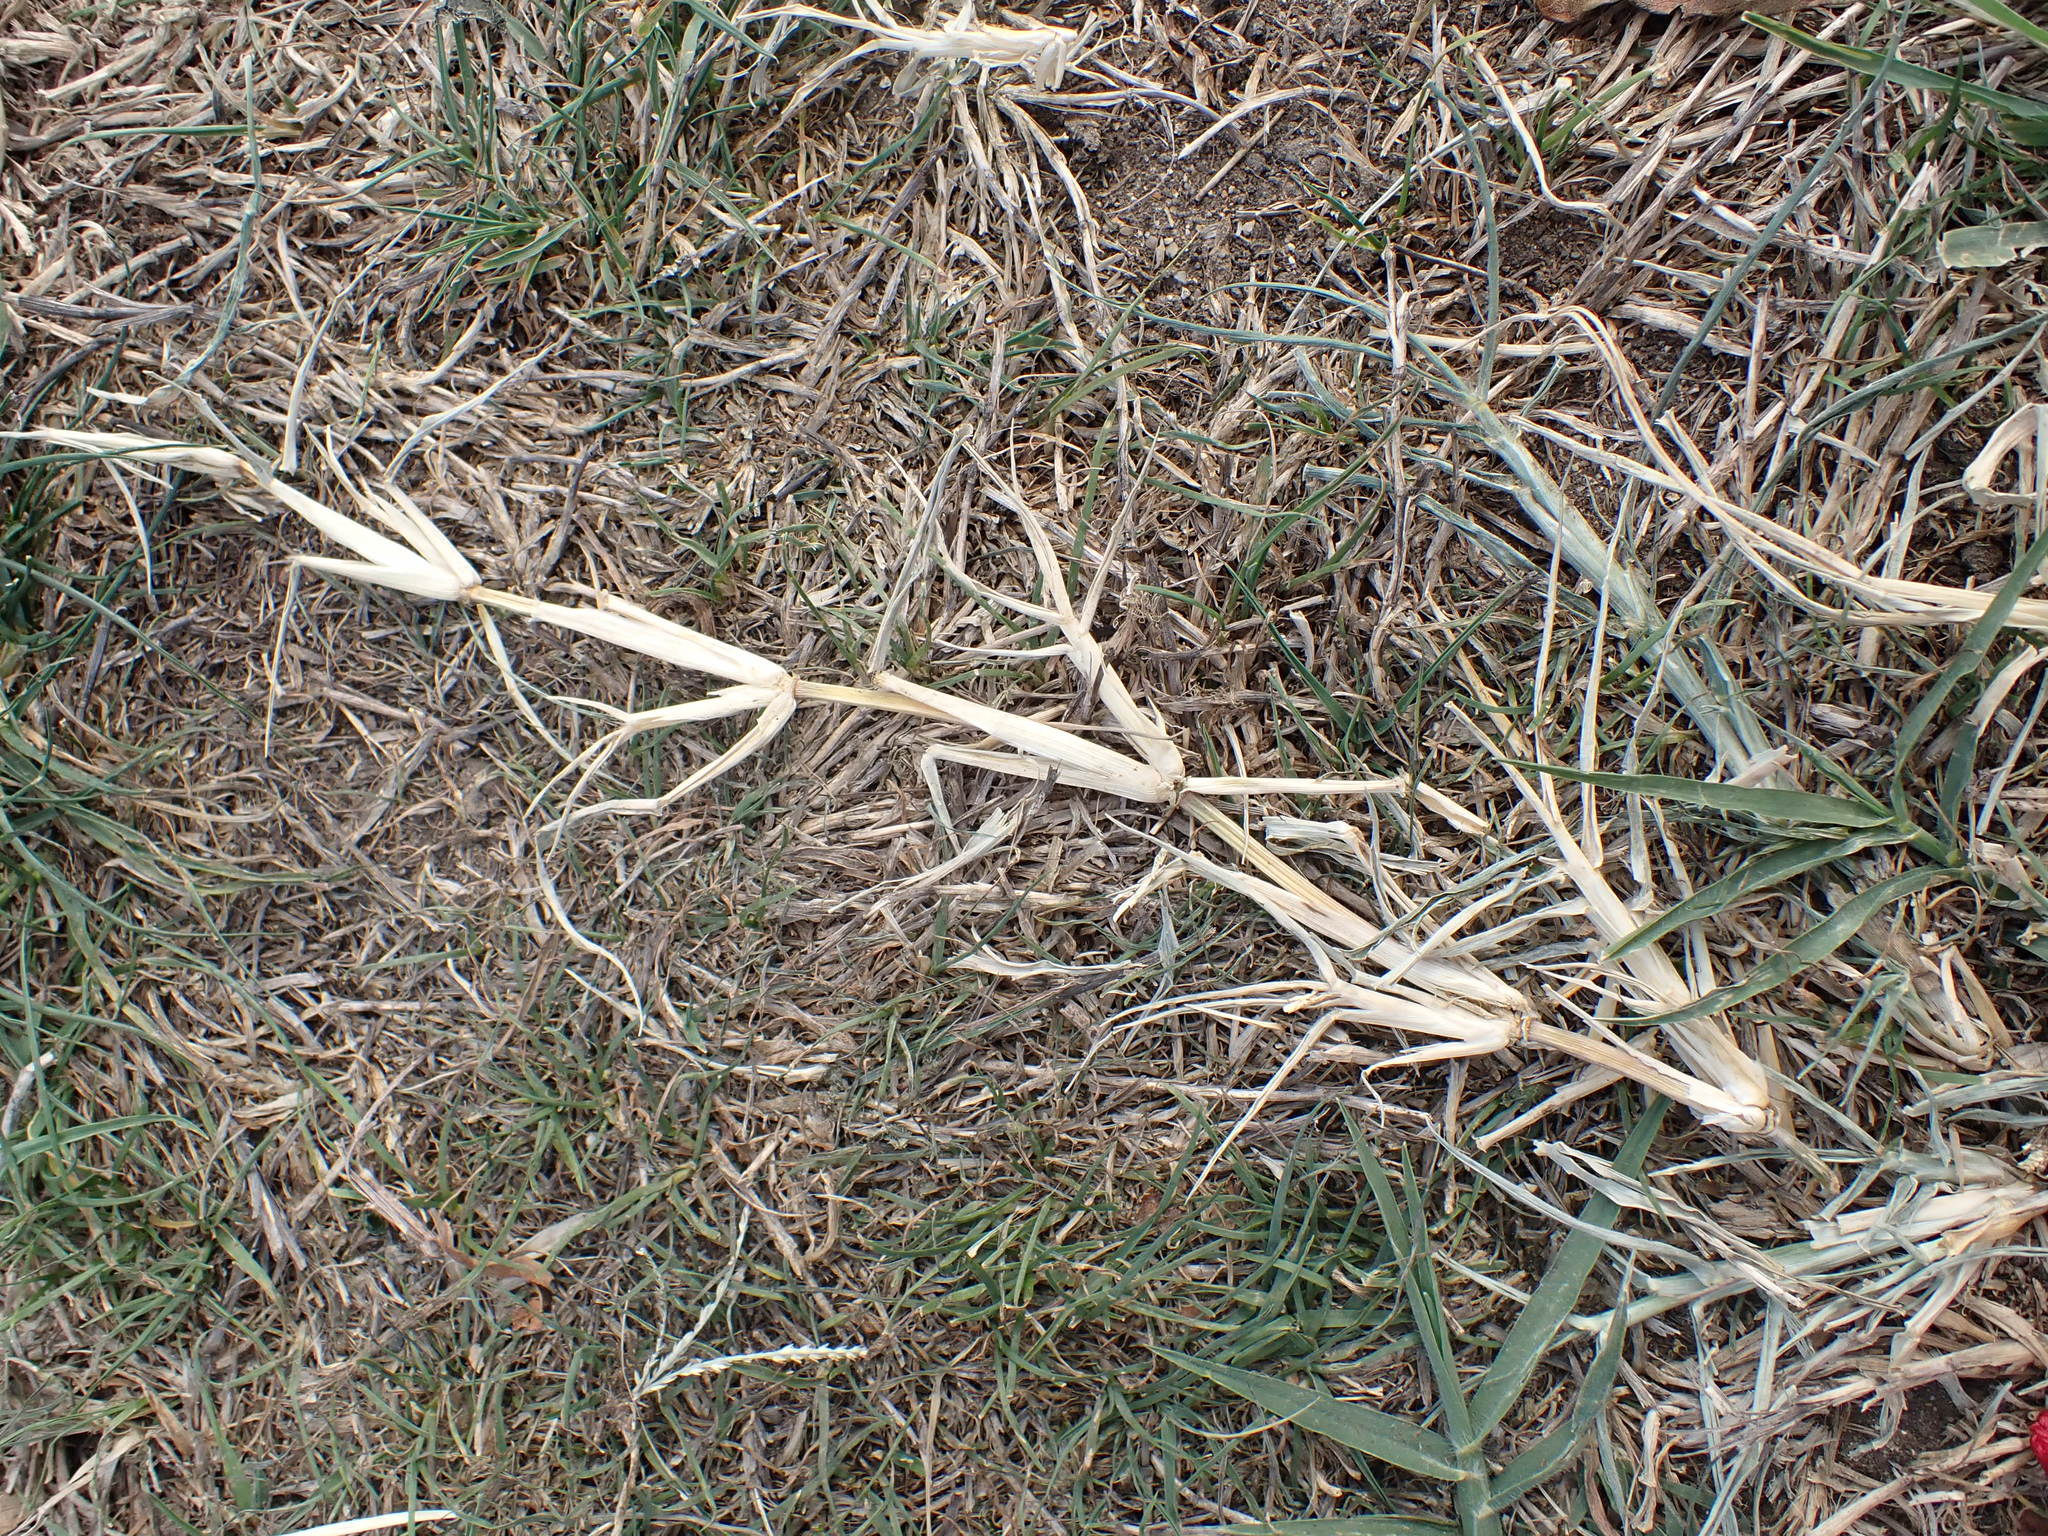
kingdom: Plantae
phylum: Tracheophyta
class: Liliopsida
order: Poales
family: Poaceae
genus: Cynodon
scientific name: Cynodon dactylon
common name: Bermuda grass
